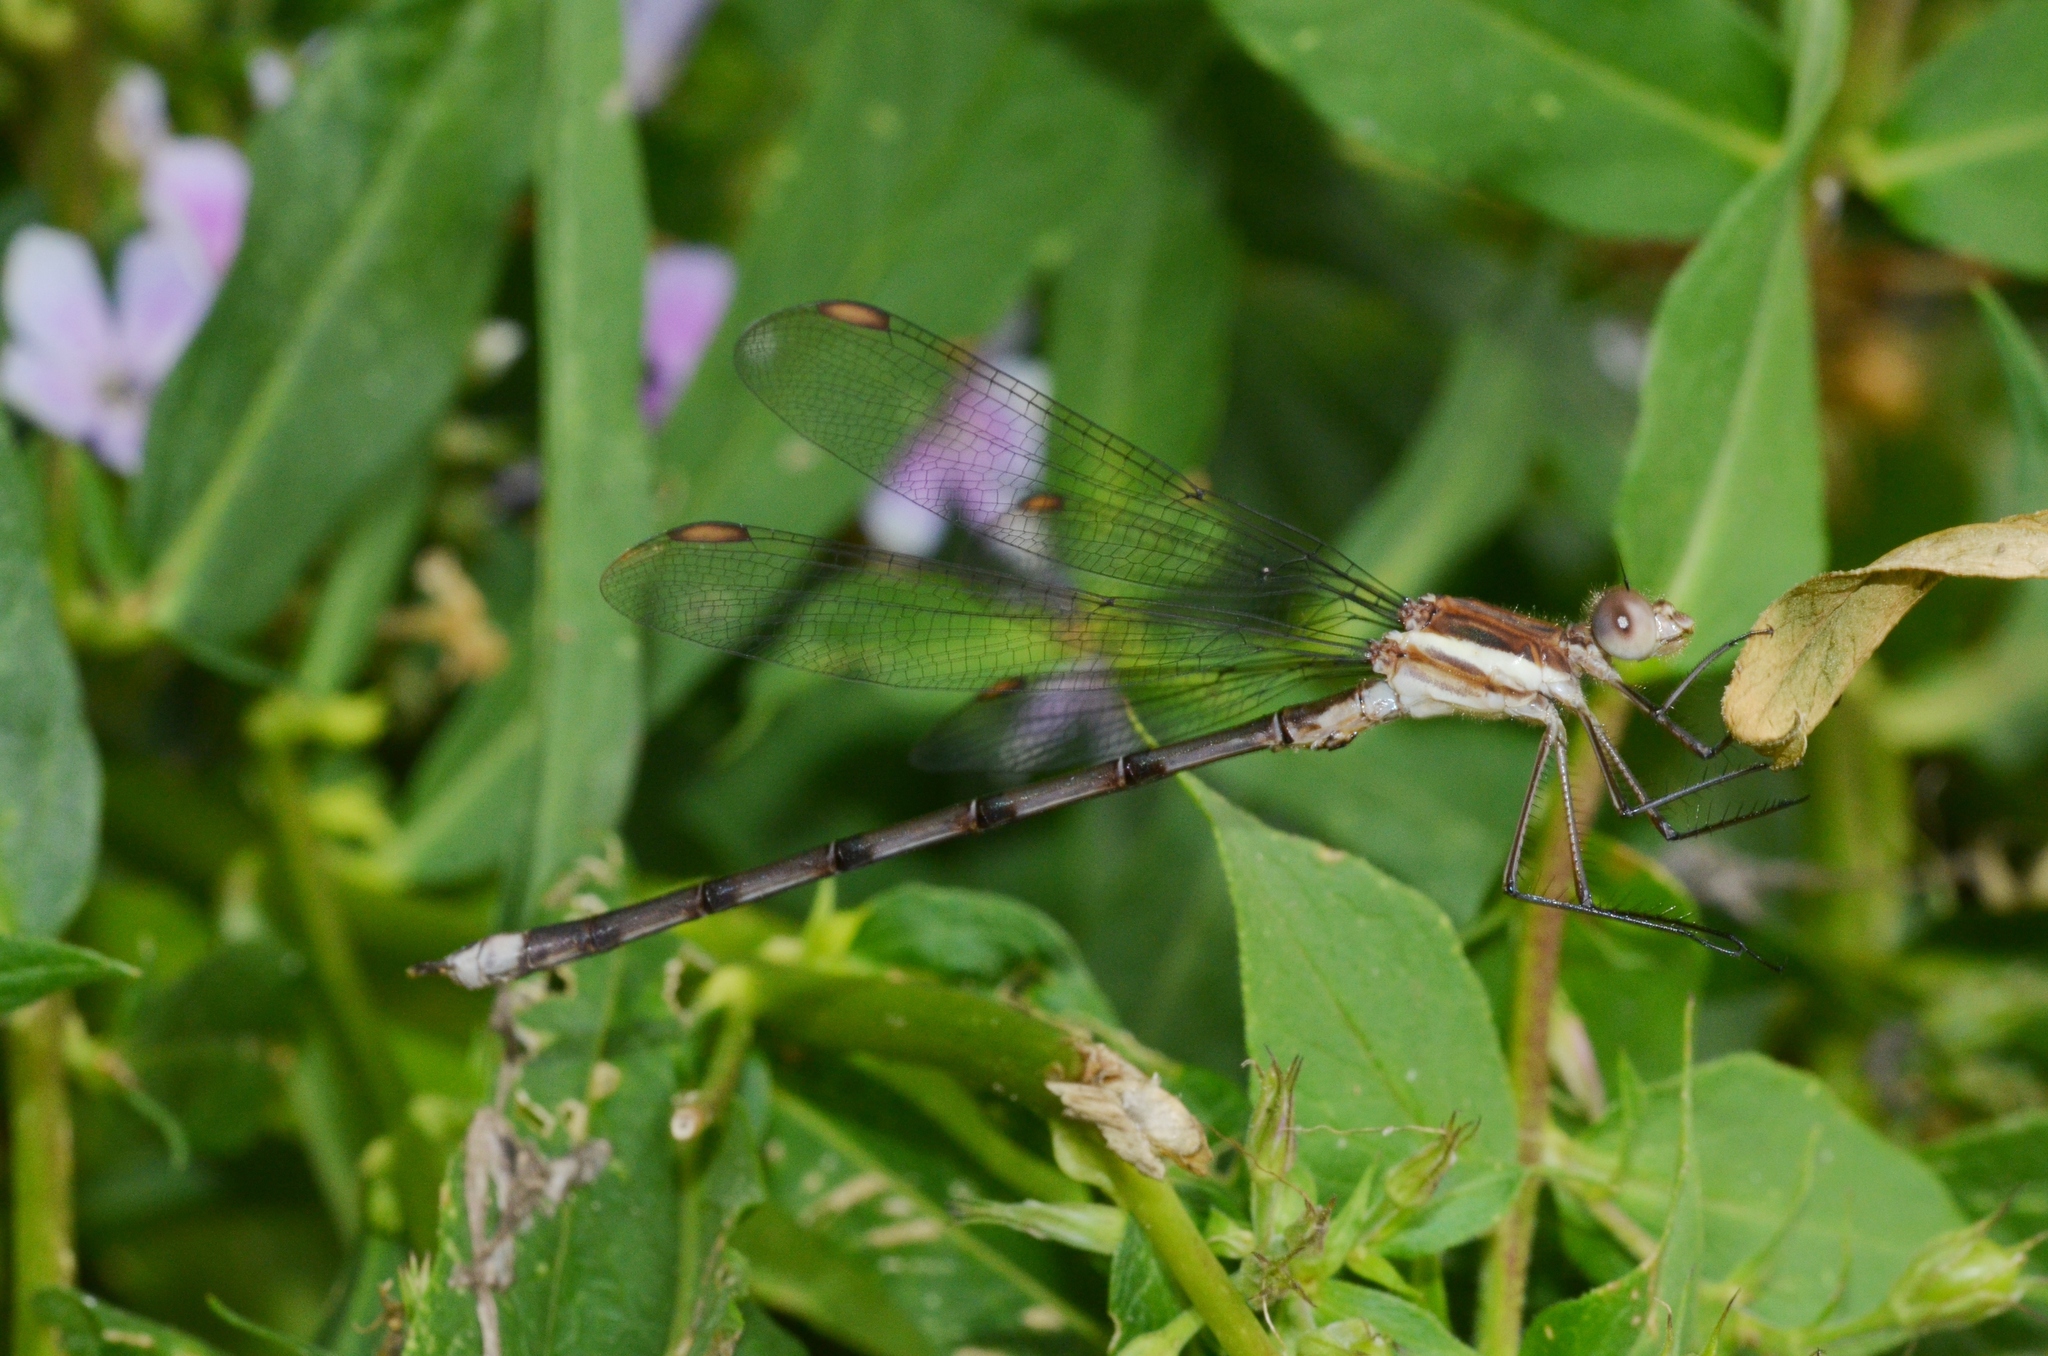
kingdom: Animalia
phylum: Arthropoda
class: Insecta
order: Odonata
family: Lestidae
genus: Archilestes
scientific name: Archilestes grandis
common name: Great spreadwing
